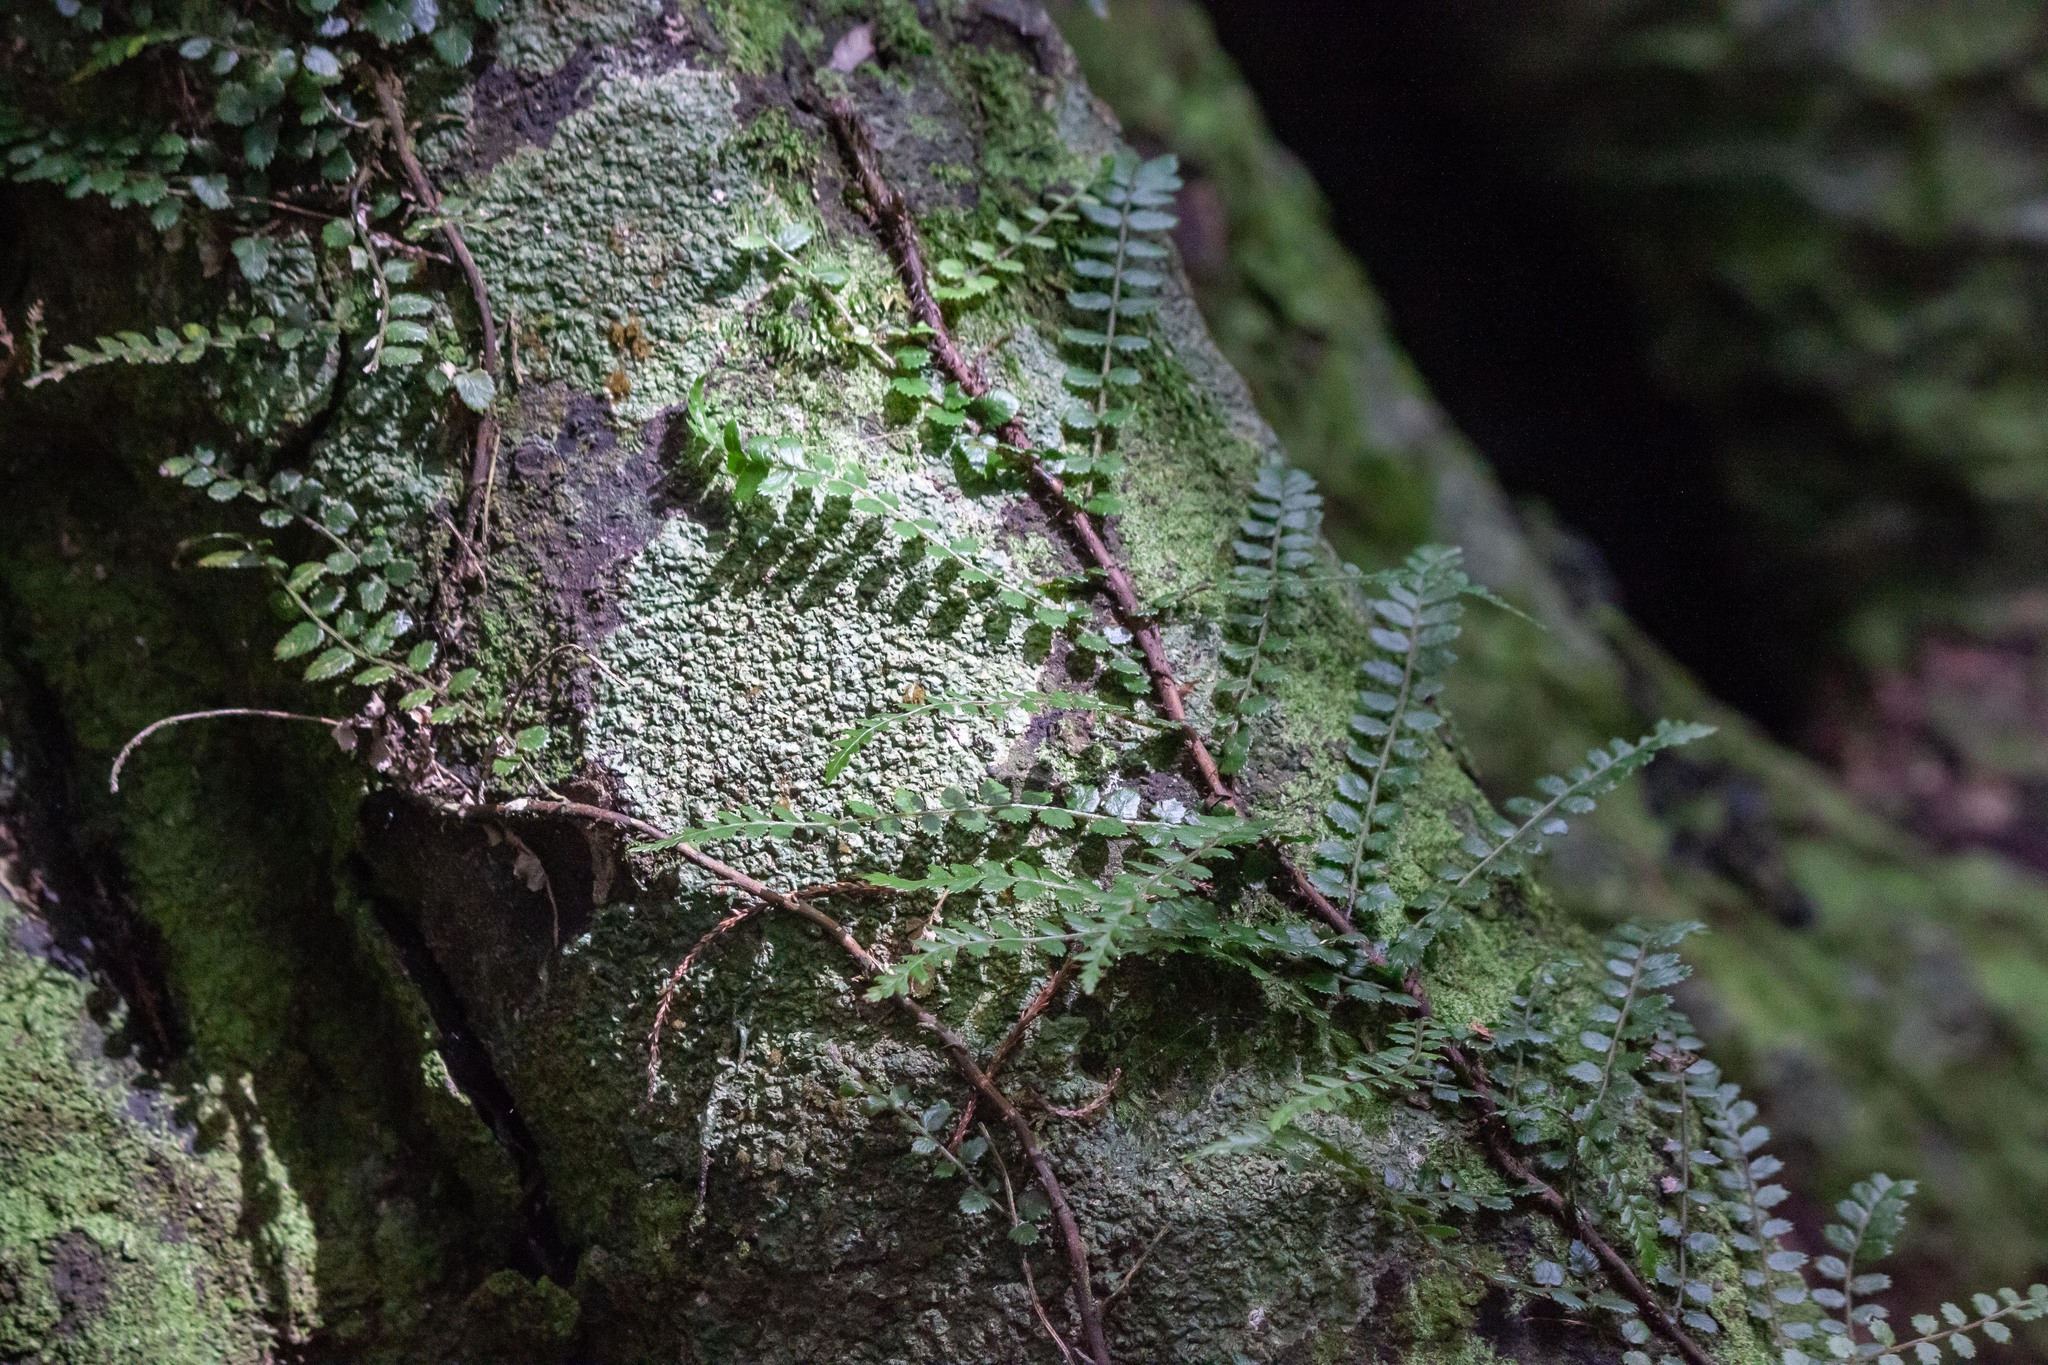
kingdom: Plantae
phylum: Tracheophyta
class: Polypodiopsida
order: Polypodiales
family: Blechnaceae
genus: Icarus
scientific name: Icarus filiformis
